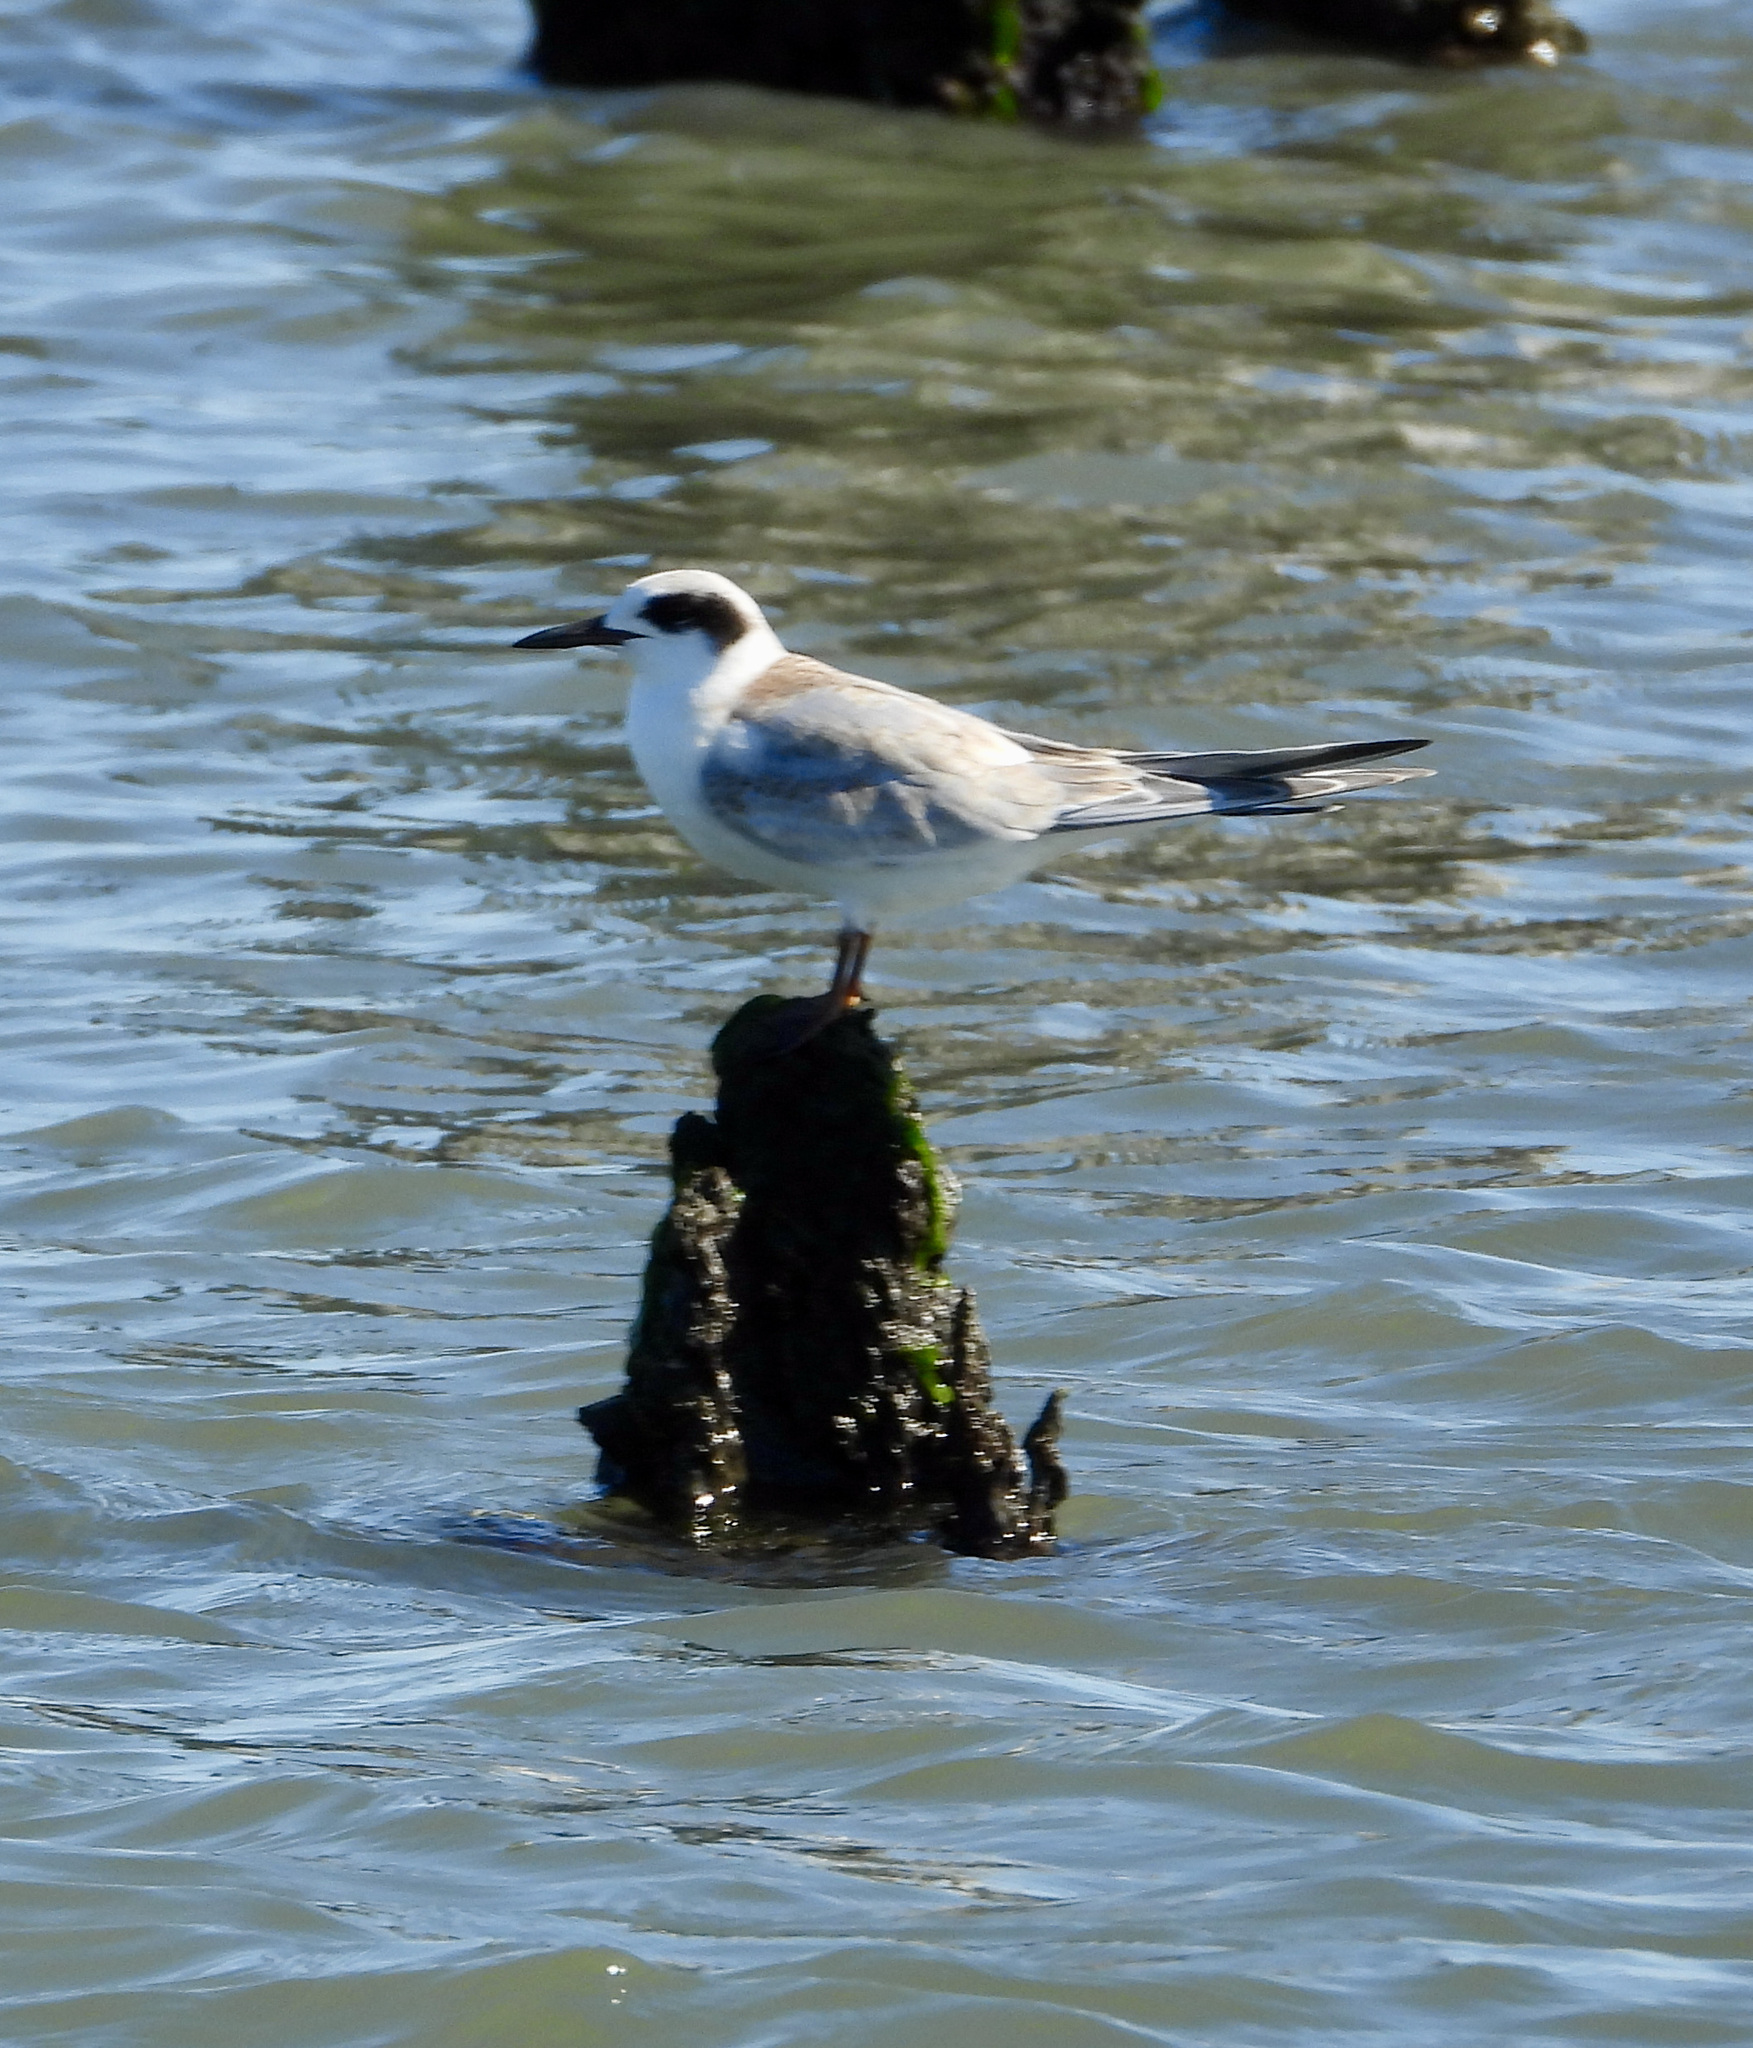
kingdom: Animalia
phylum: Chordata
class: Aves
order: Charadriiformes
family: Laridae
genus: Sterna
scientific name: Sterna forsteri
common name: Forster's tern
